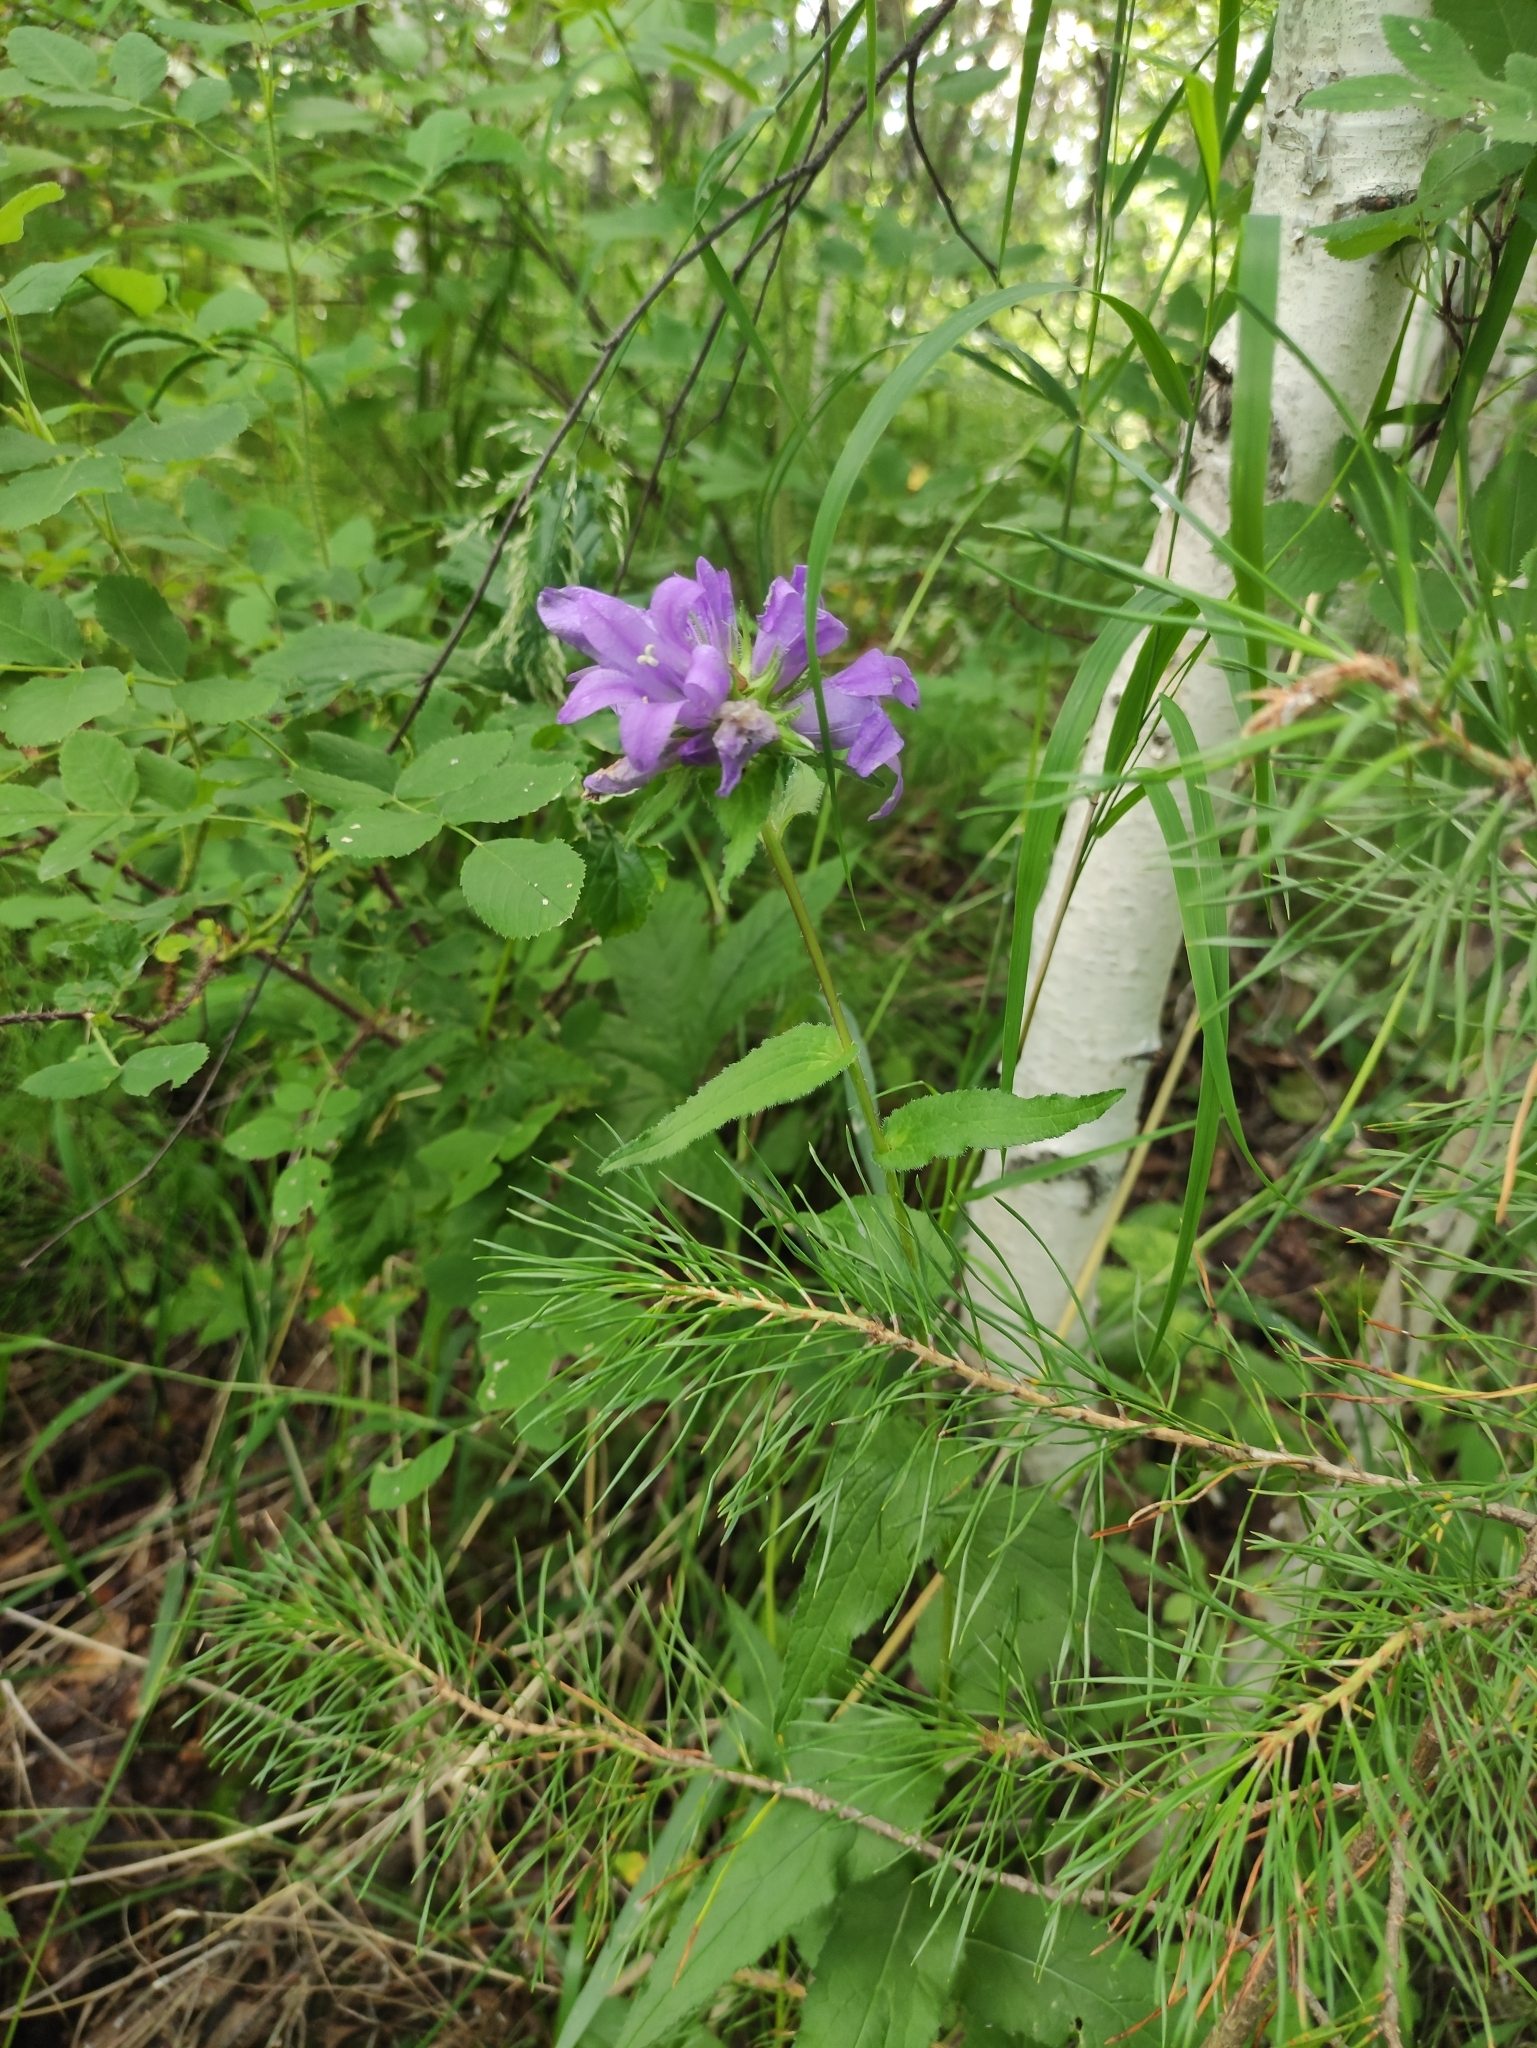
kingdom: Plantae
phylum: Tracheophyta
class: Magnoliopsida
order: Asterales
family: Campanulaceae
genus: Campanula
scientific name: Campanula glomerata
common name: Clustered bellflower
